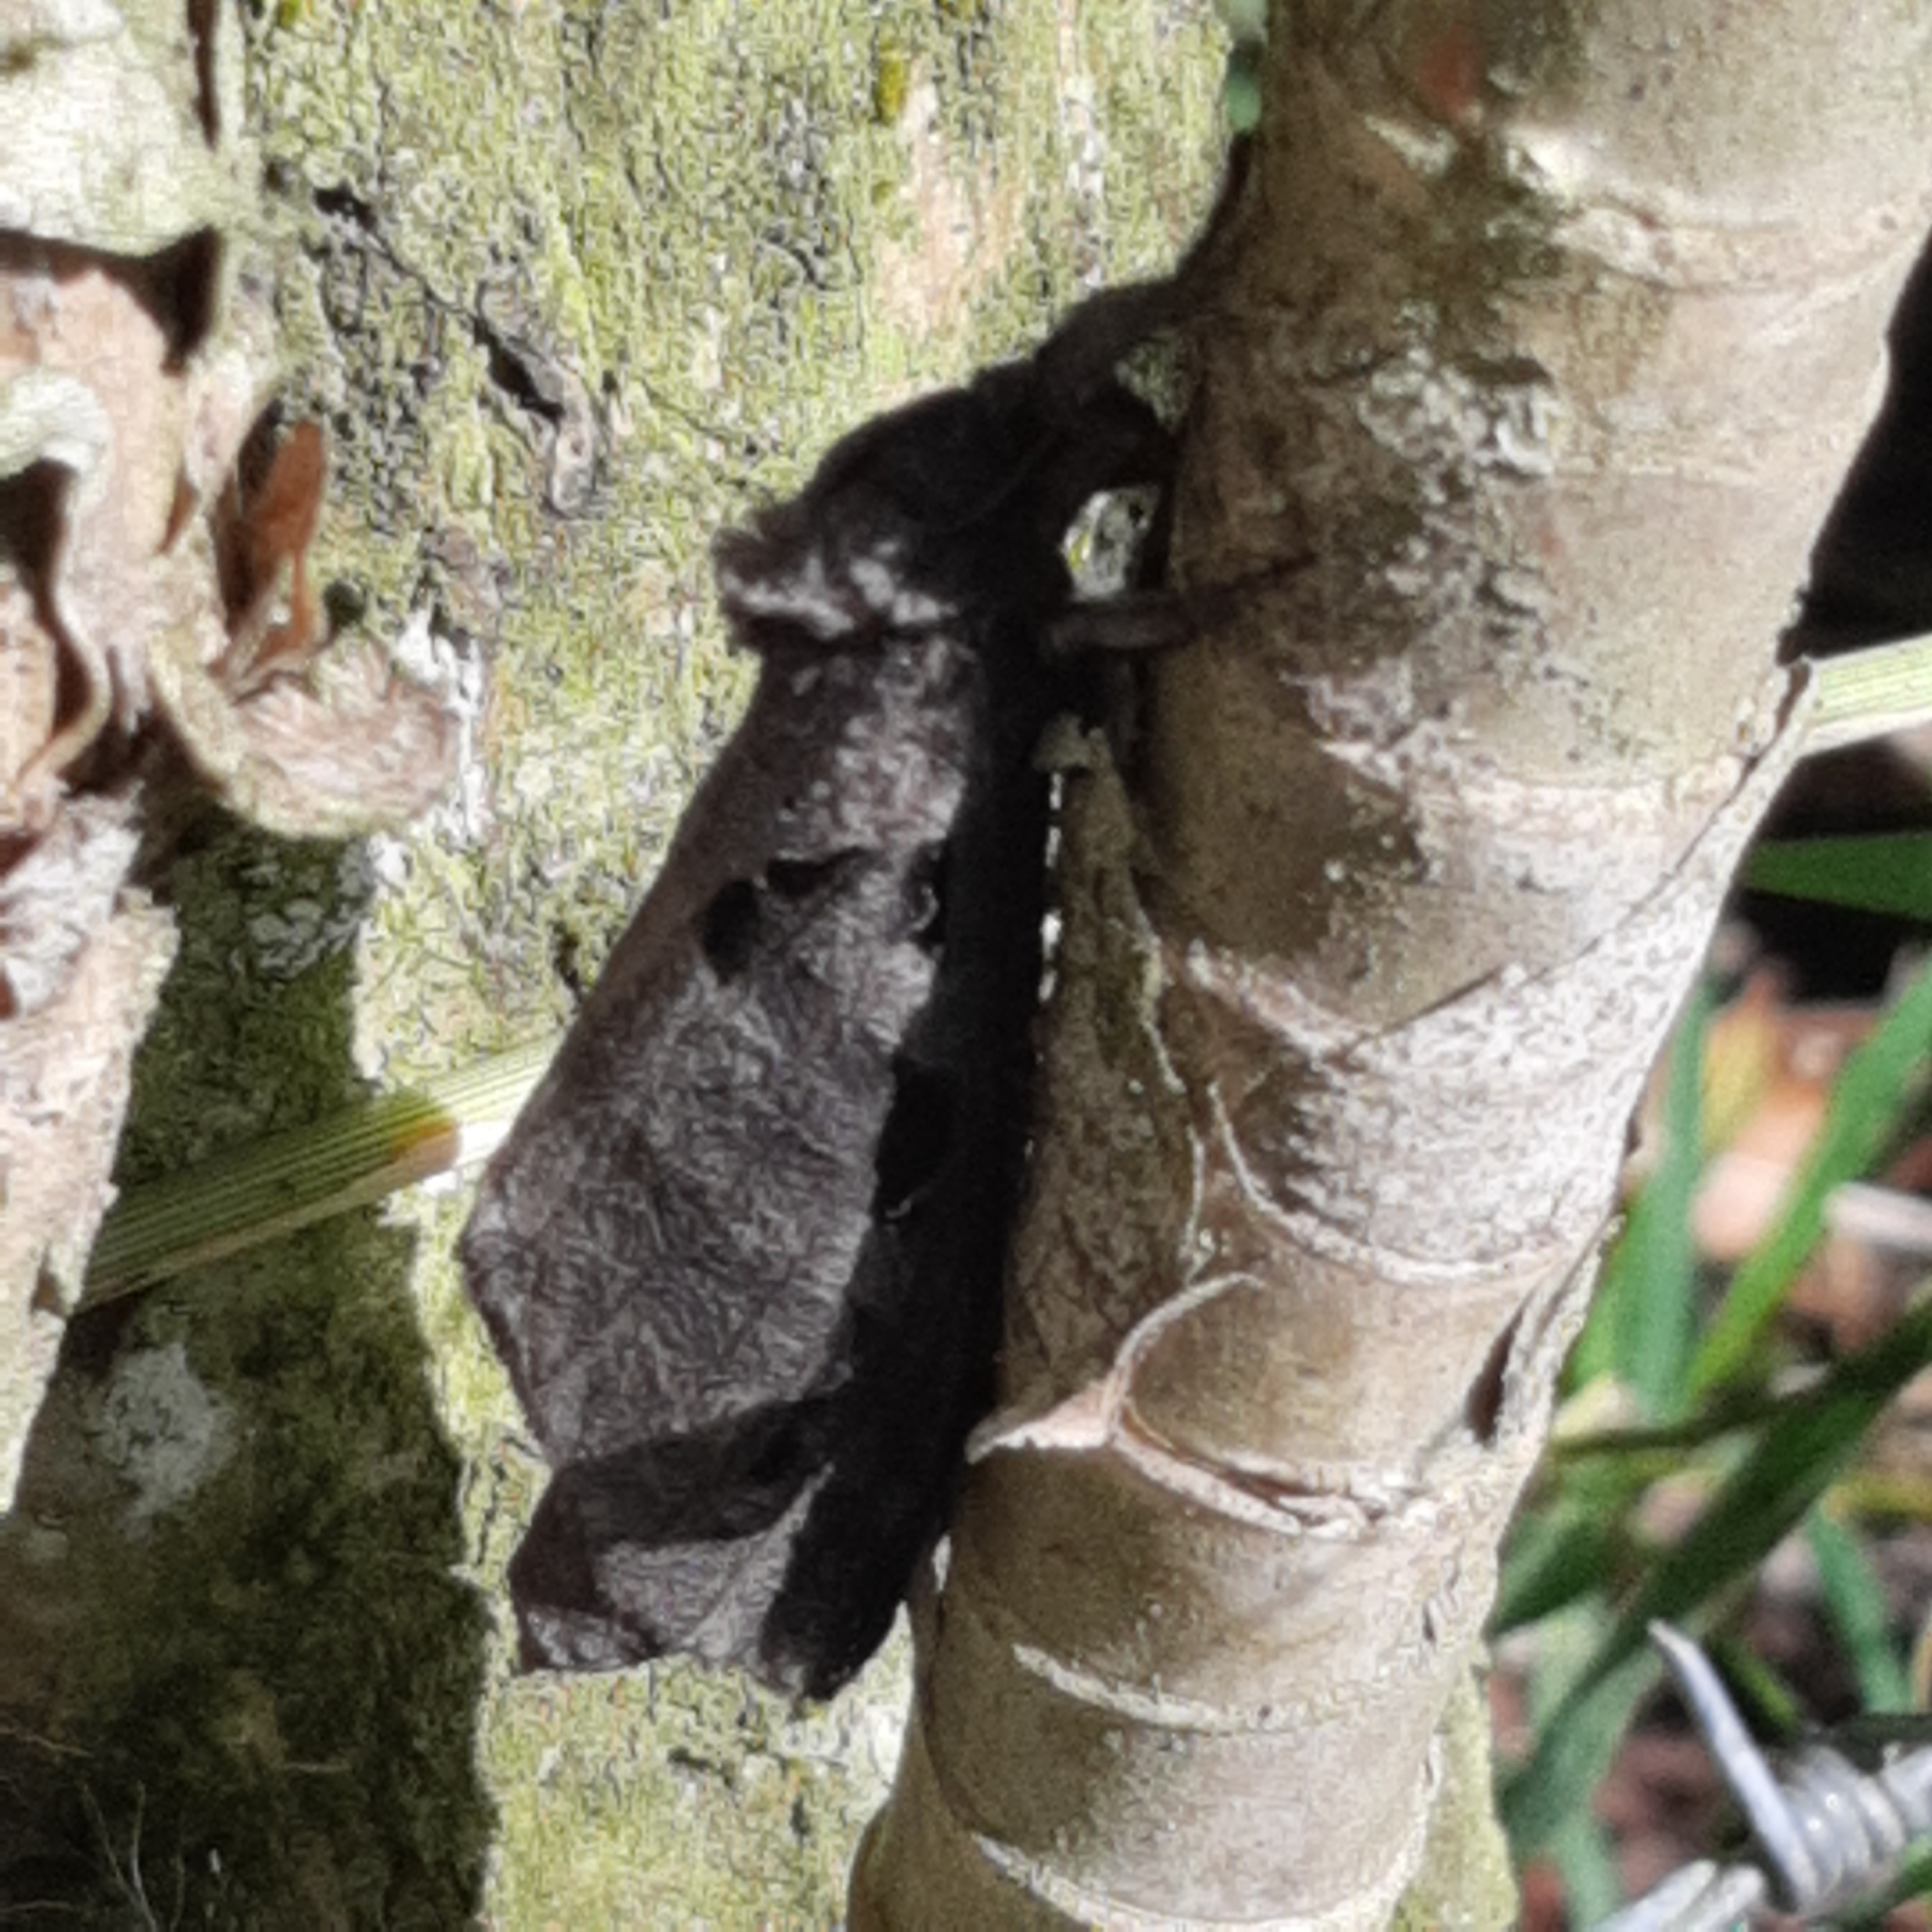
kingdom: Animalia
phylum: Arthropoda
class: Insecta
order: Lepidoptera
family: Hepialidae
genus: Phassus
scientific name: Phassus pharus
